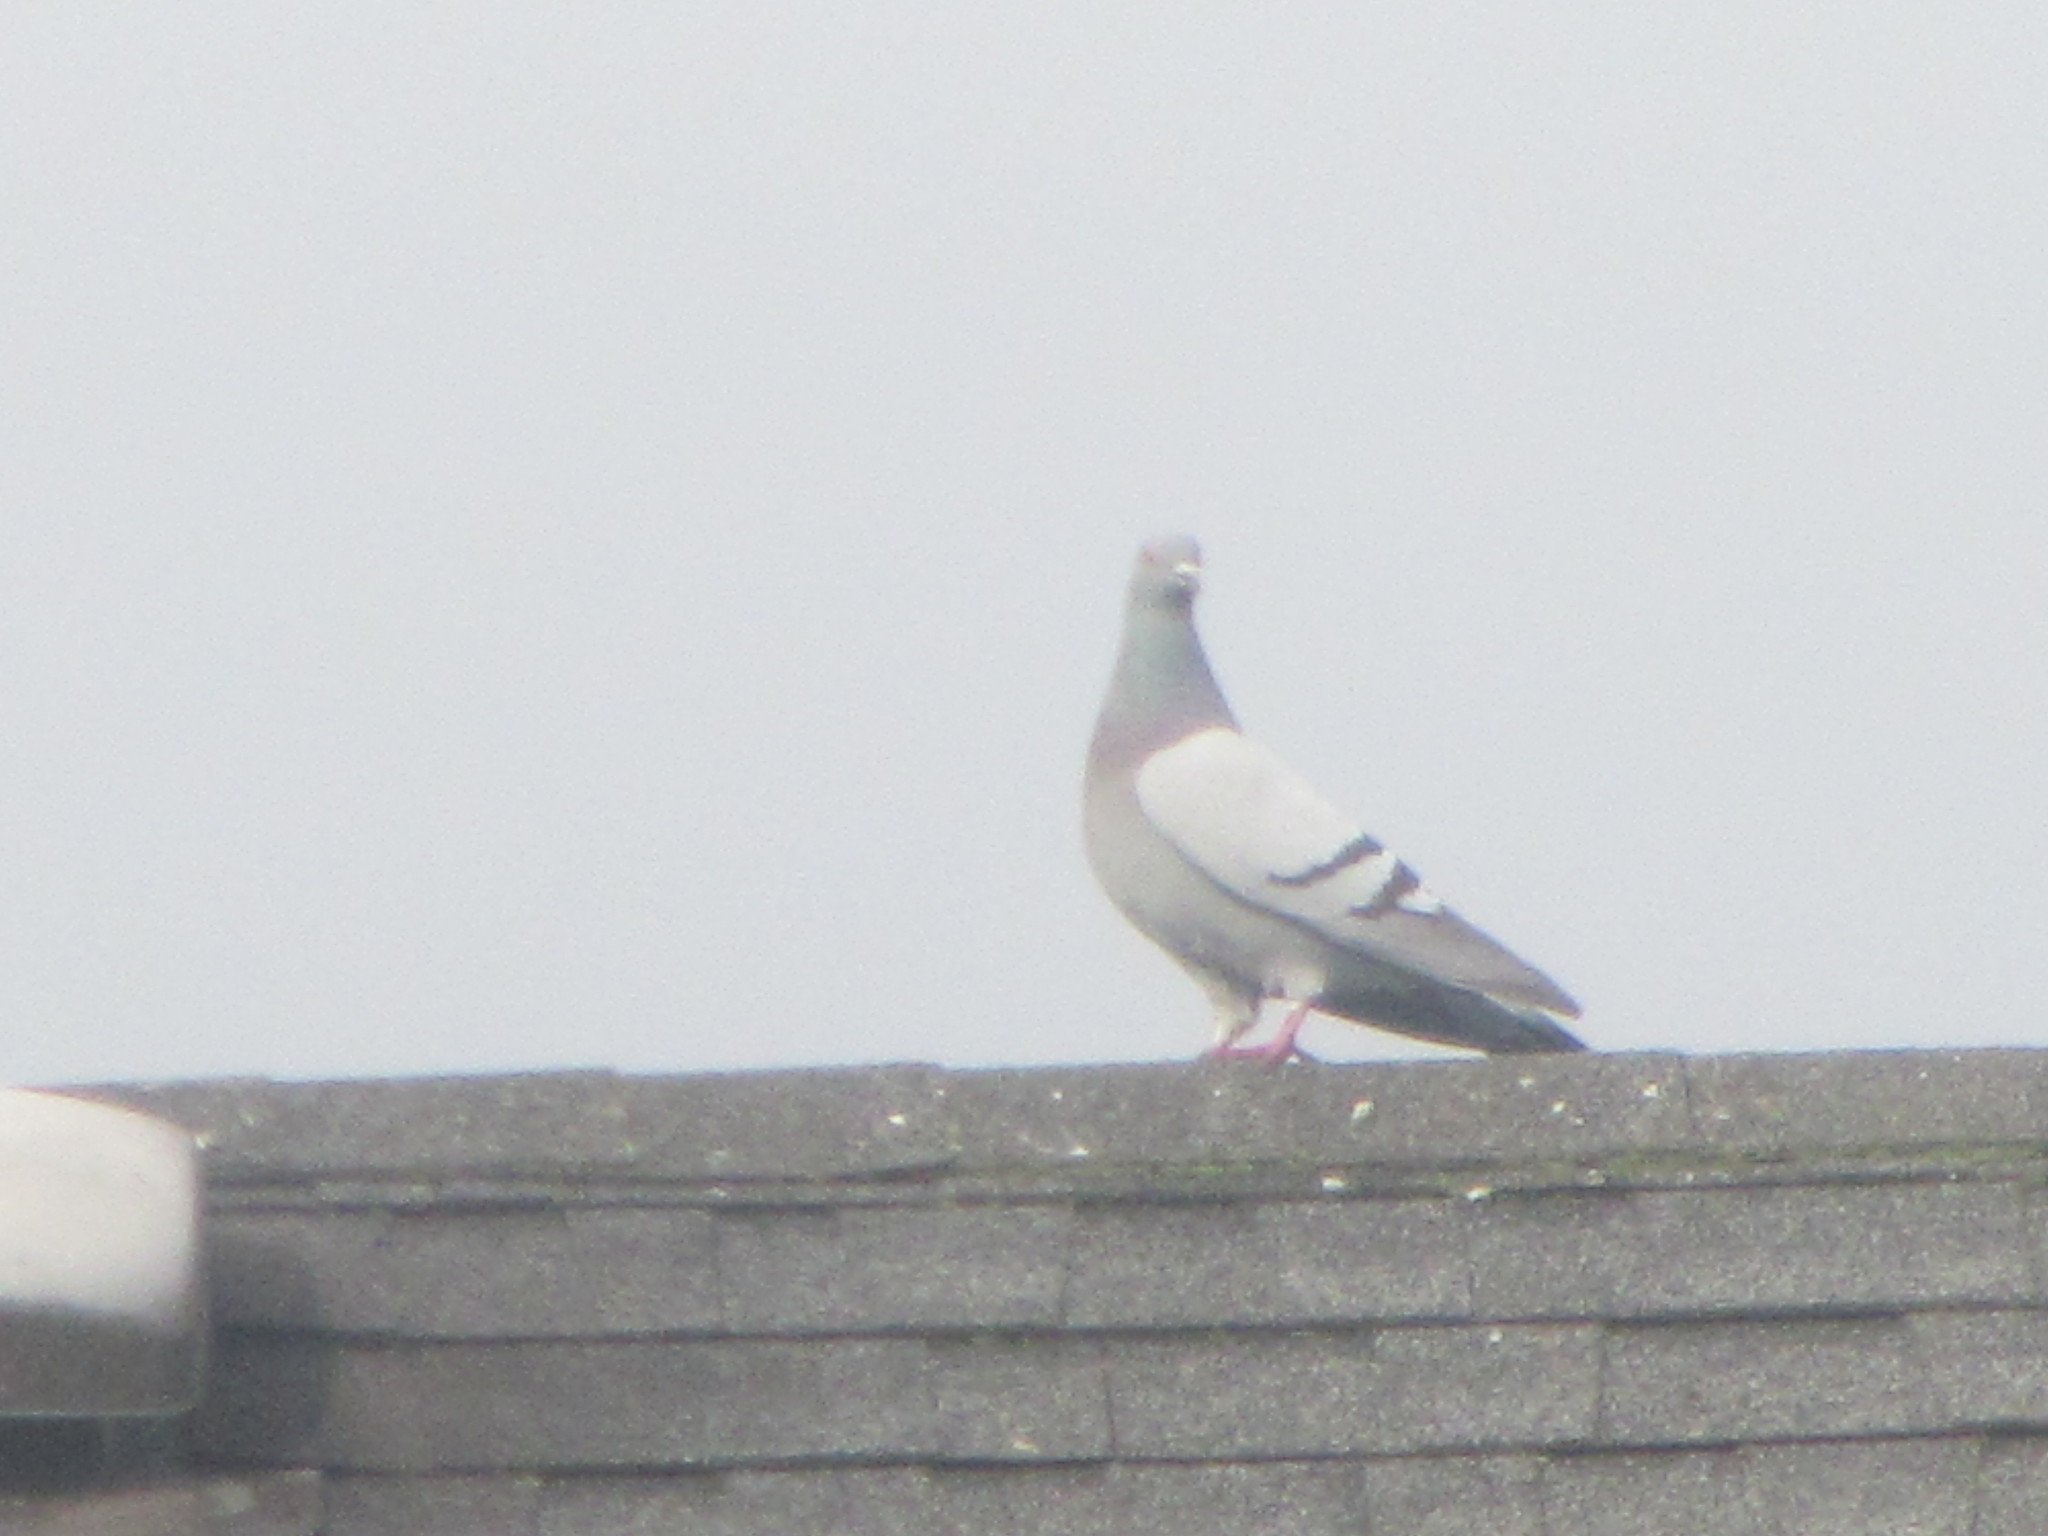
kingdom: Animalia
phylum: Chordata
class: Aves
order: Columbiformes
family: Columbidae
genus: Columba
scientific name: Columba livia
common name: Rock pigeon
